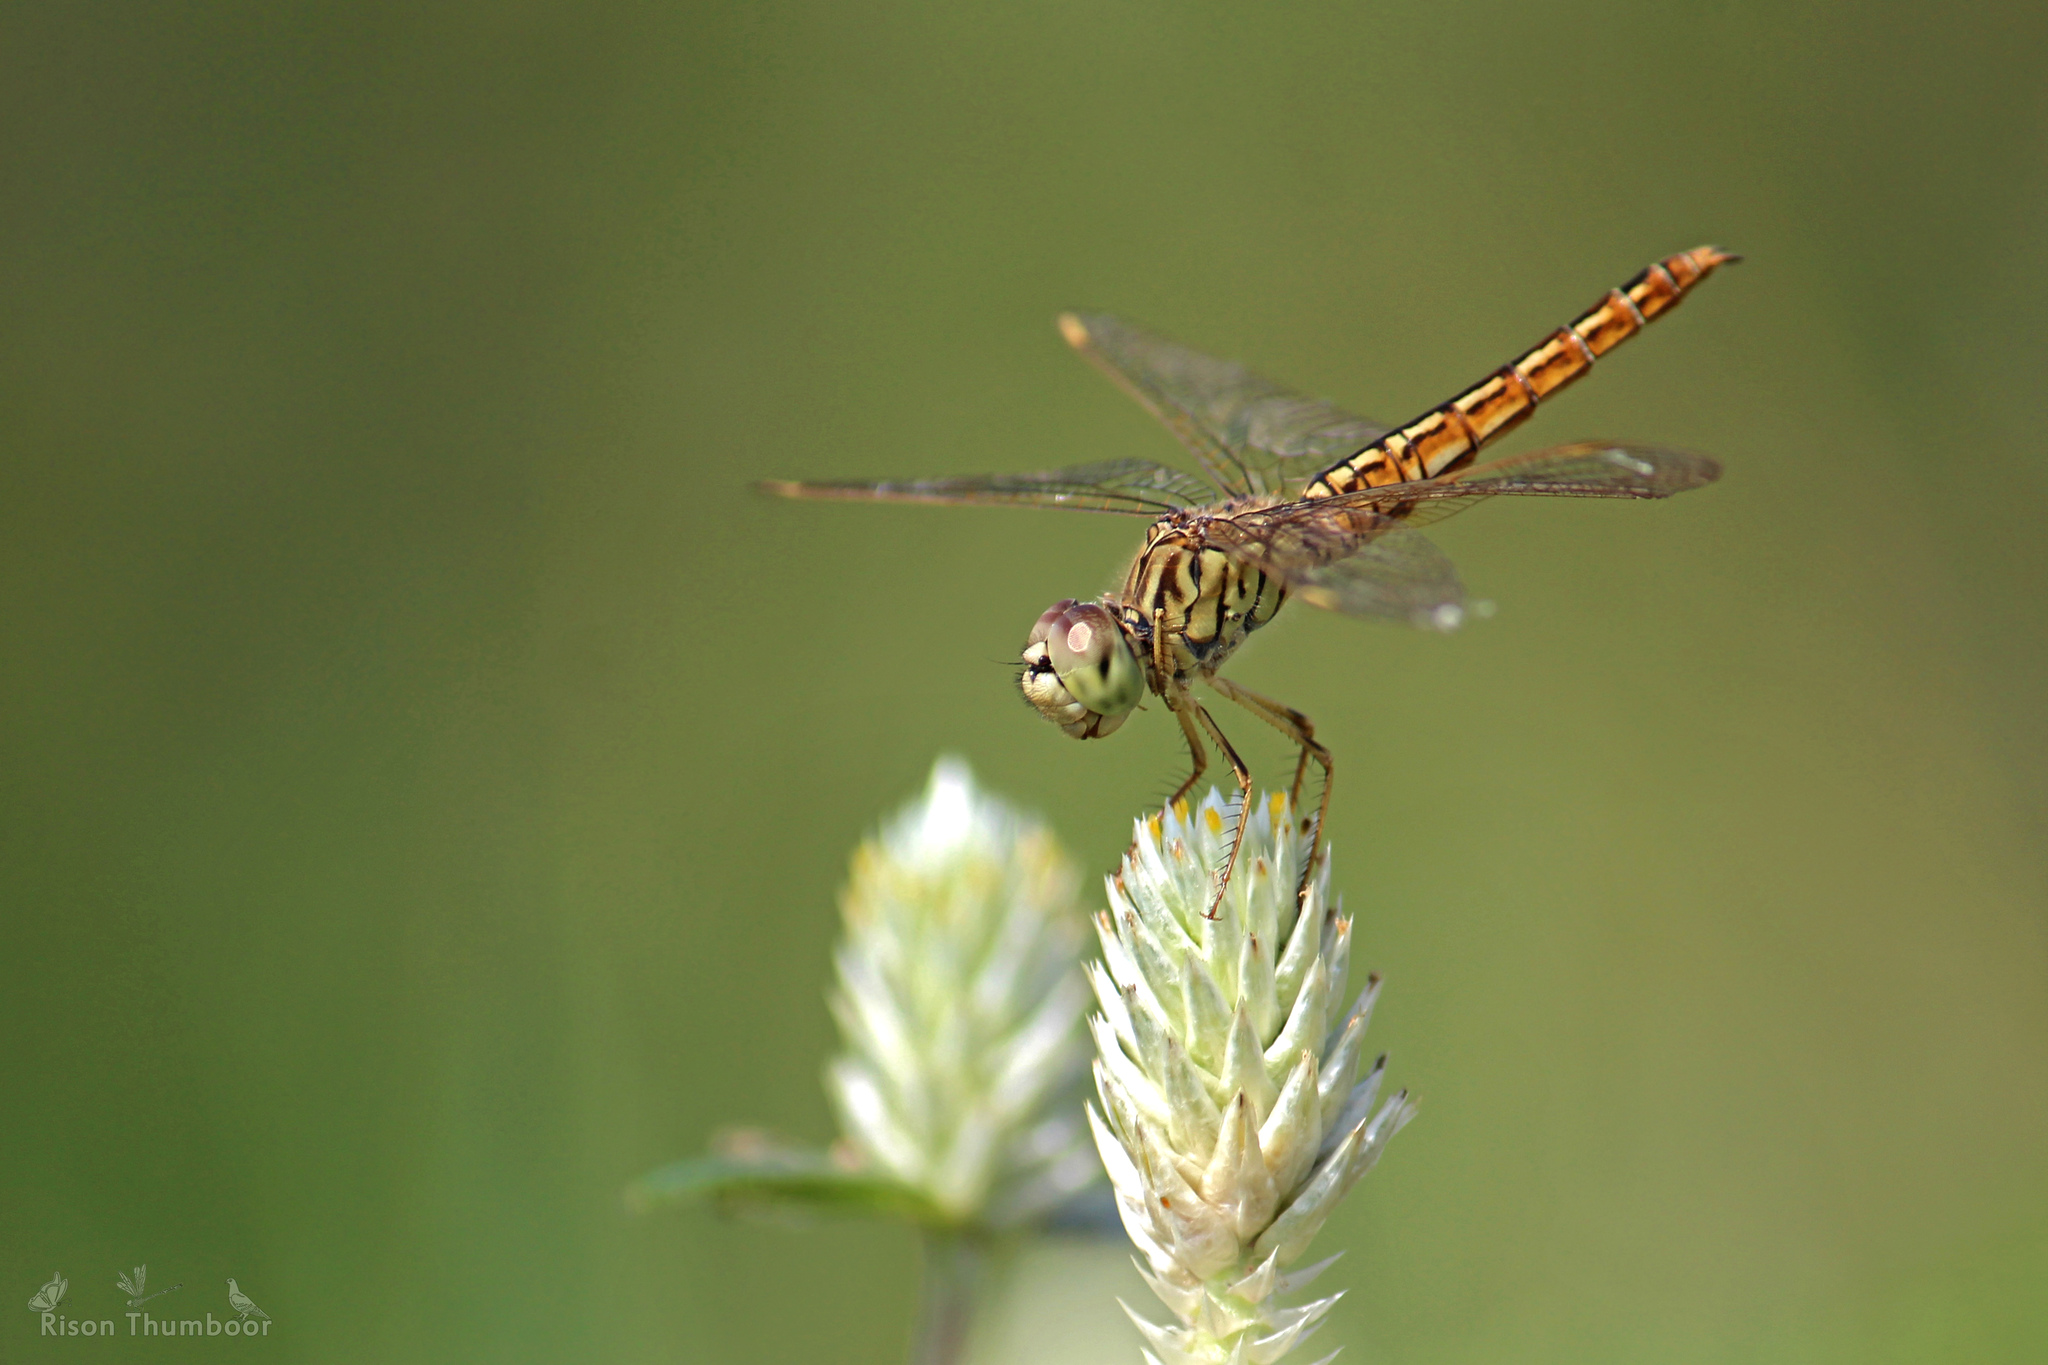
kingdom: Animalia
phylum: Arthropoda
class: Insecta
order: Odonata
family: Libellulidae
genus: Brachythemis
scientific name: Brachythemis contaminata
